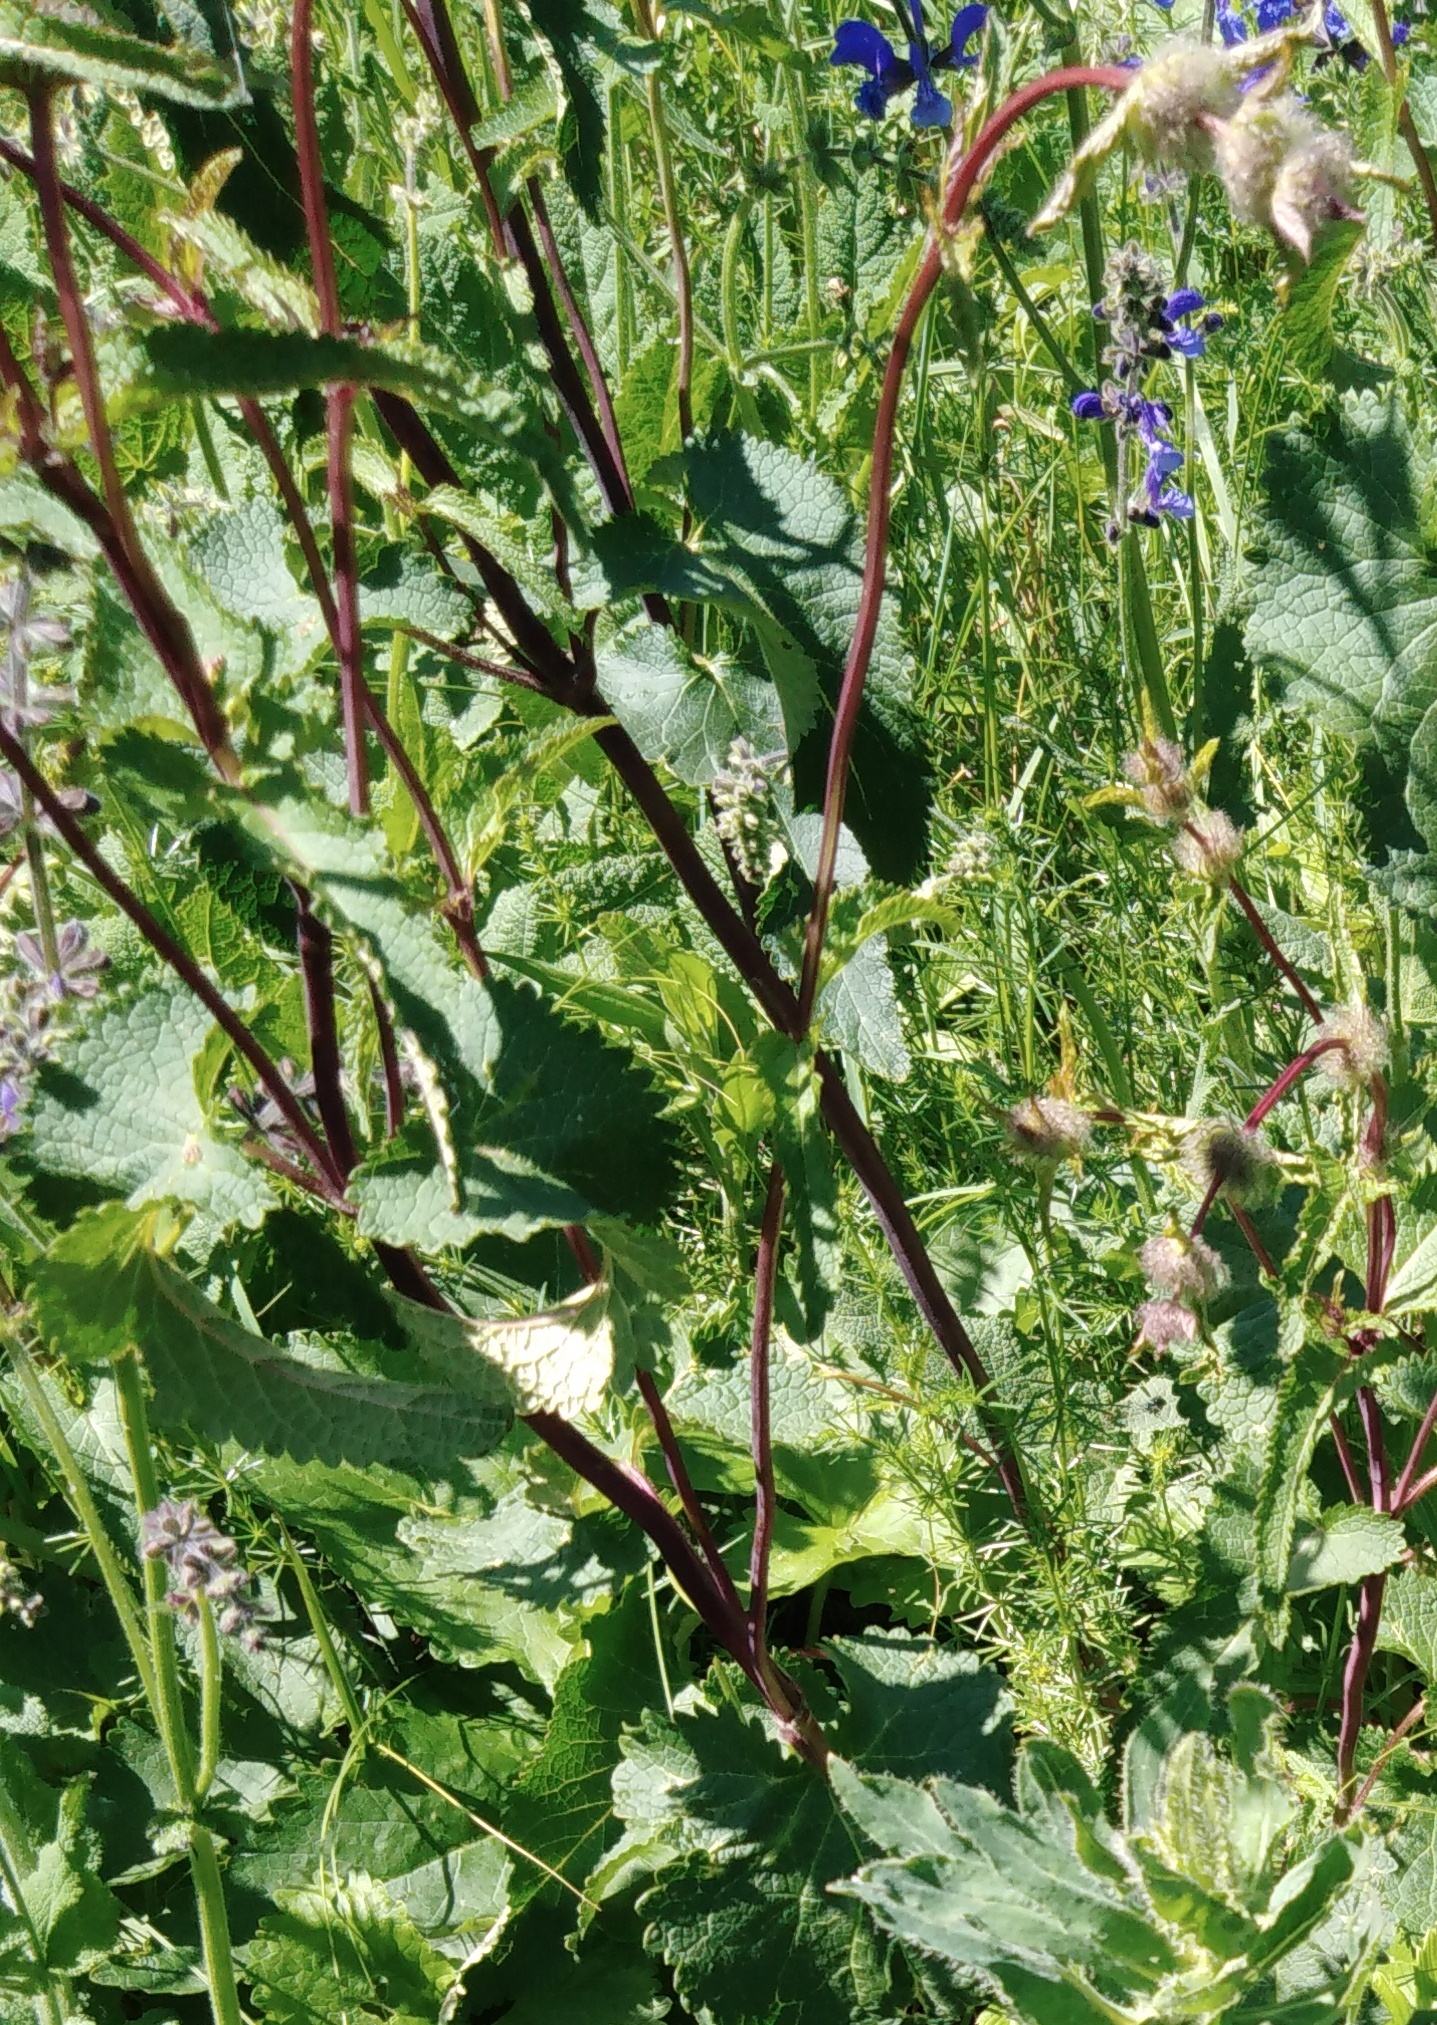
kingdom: Plantae
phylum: Tracheophyta
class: Magnoliopsida
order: Lamiales
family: Lamiaceae
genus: Phlomoides
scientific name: Phlomoides tuberosa
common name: Tuberous jerusalem sage
